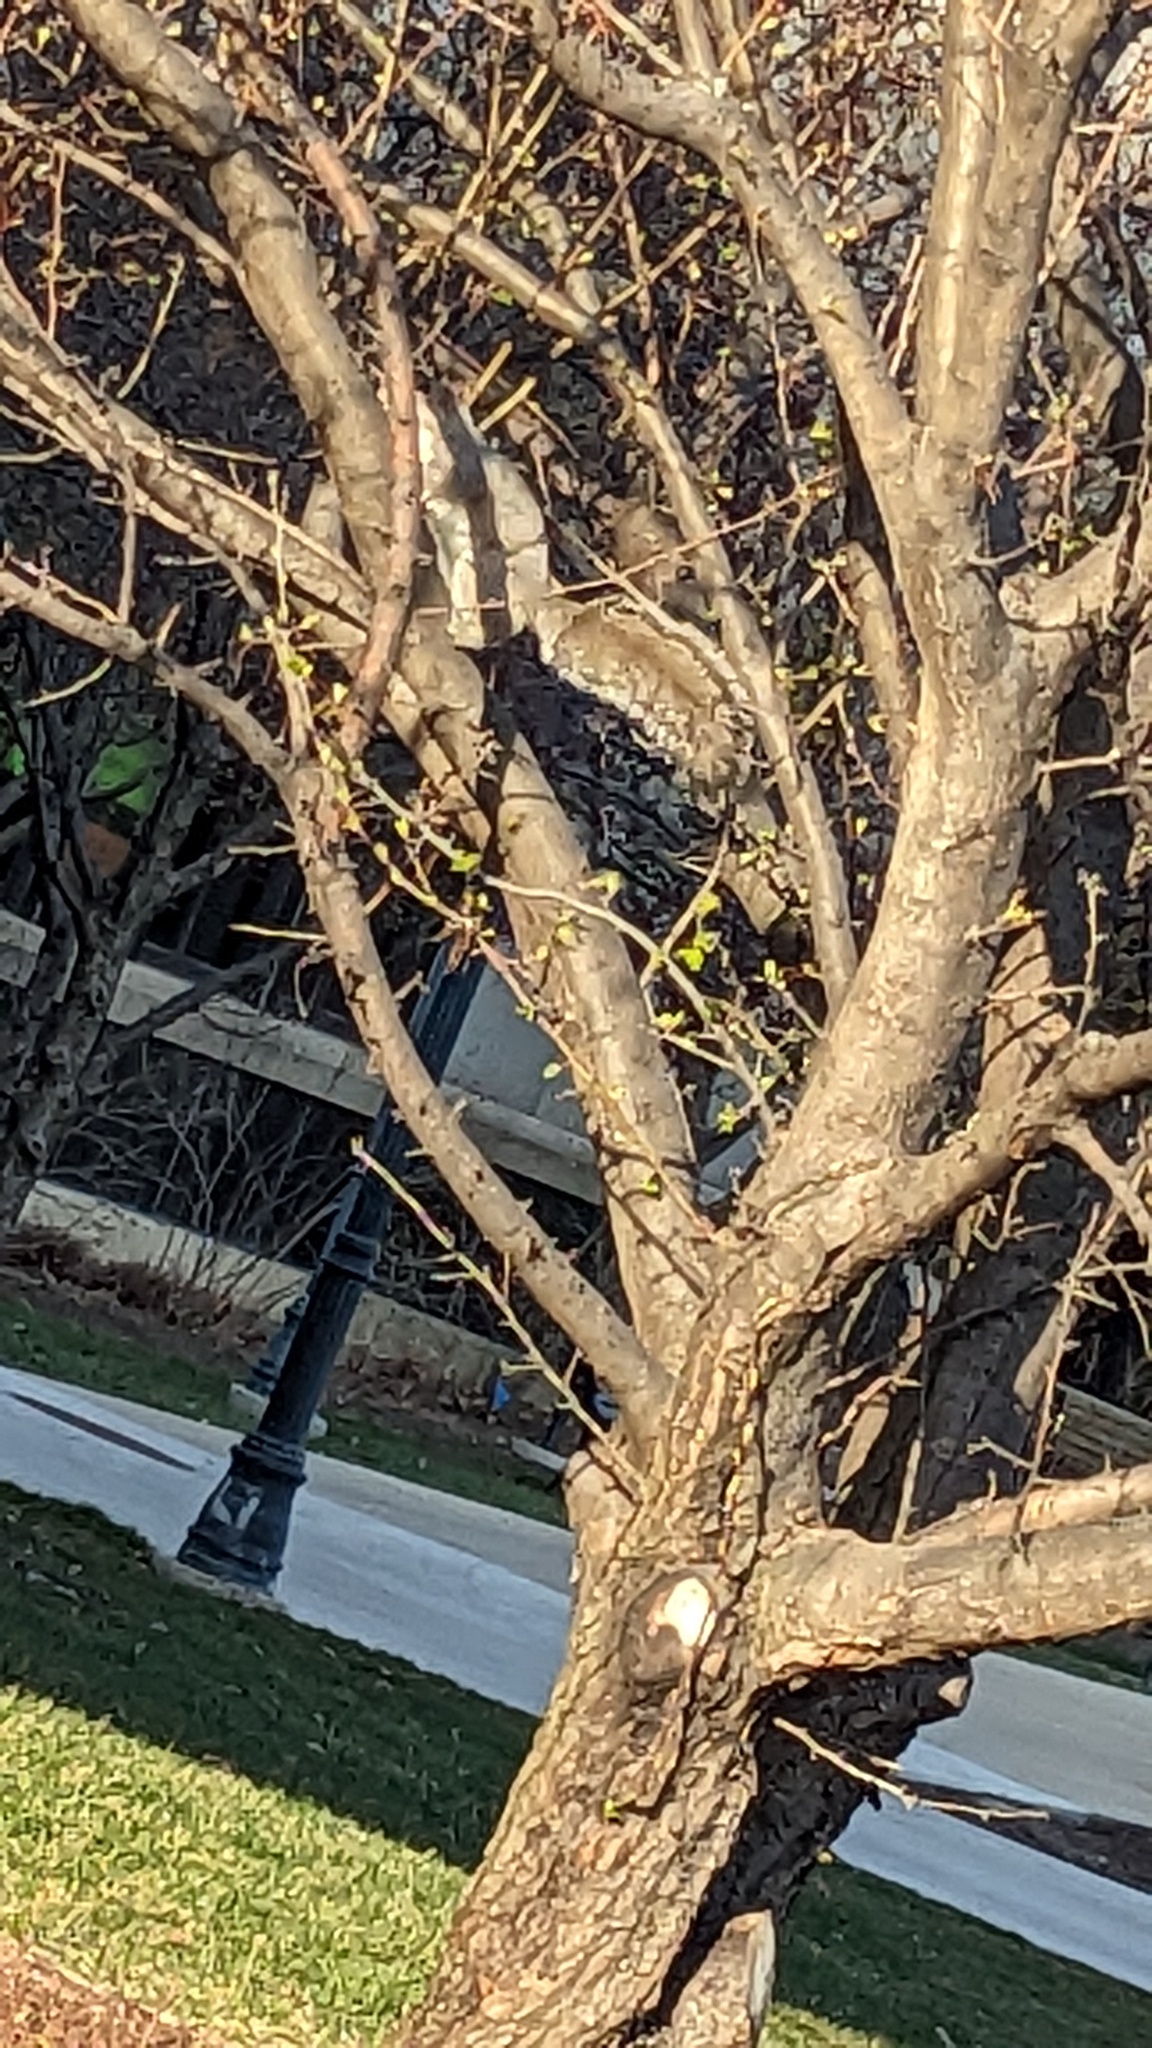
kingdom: Animalia
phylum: Chordata
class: Mammalia
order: Rodentia
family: Sciuridae
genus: Sciurus
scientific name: Sciurus carolinensis
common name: Eastern gray squirrel
